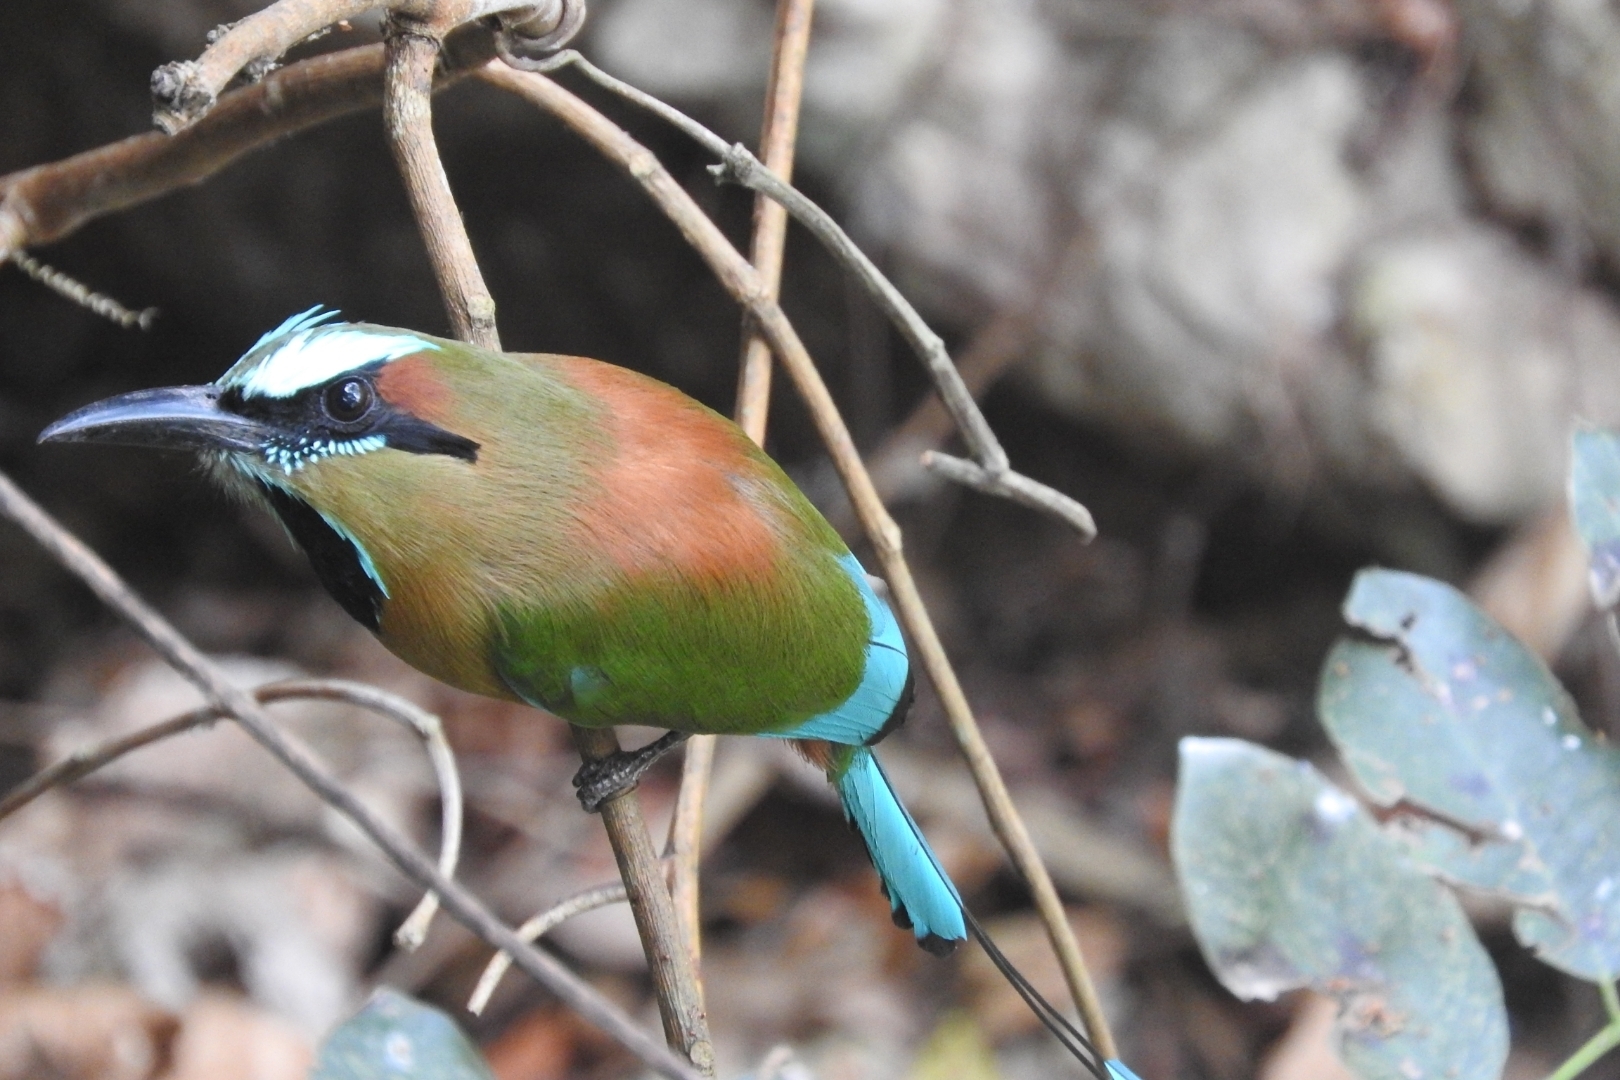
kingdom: Animalia
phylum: Chordata
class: Aves
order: Coraciiformes
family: Momotidae
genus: Eumomota
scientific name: Eumomota superciliosa
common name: Turquoise-browed motmot
